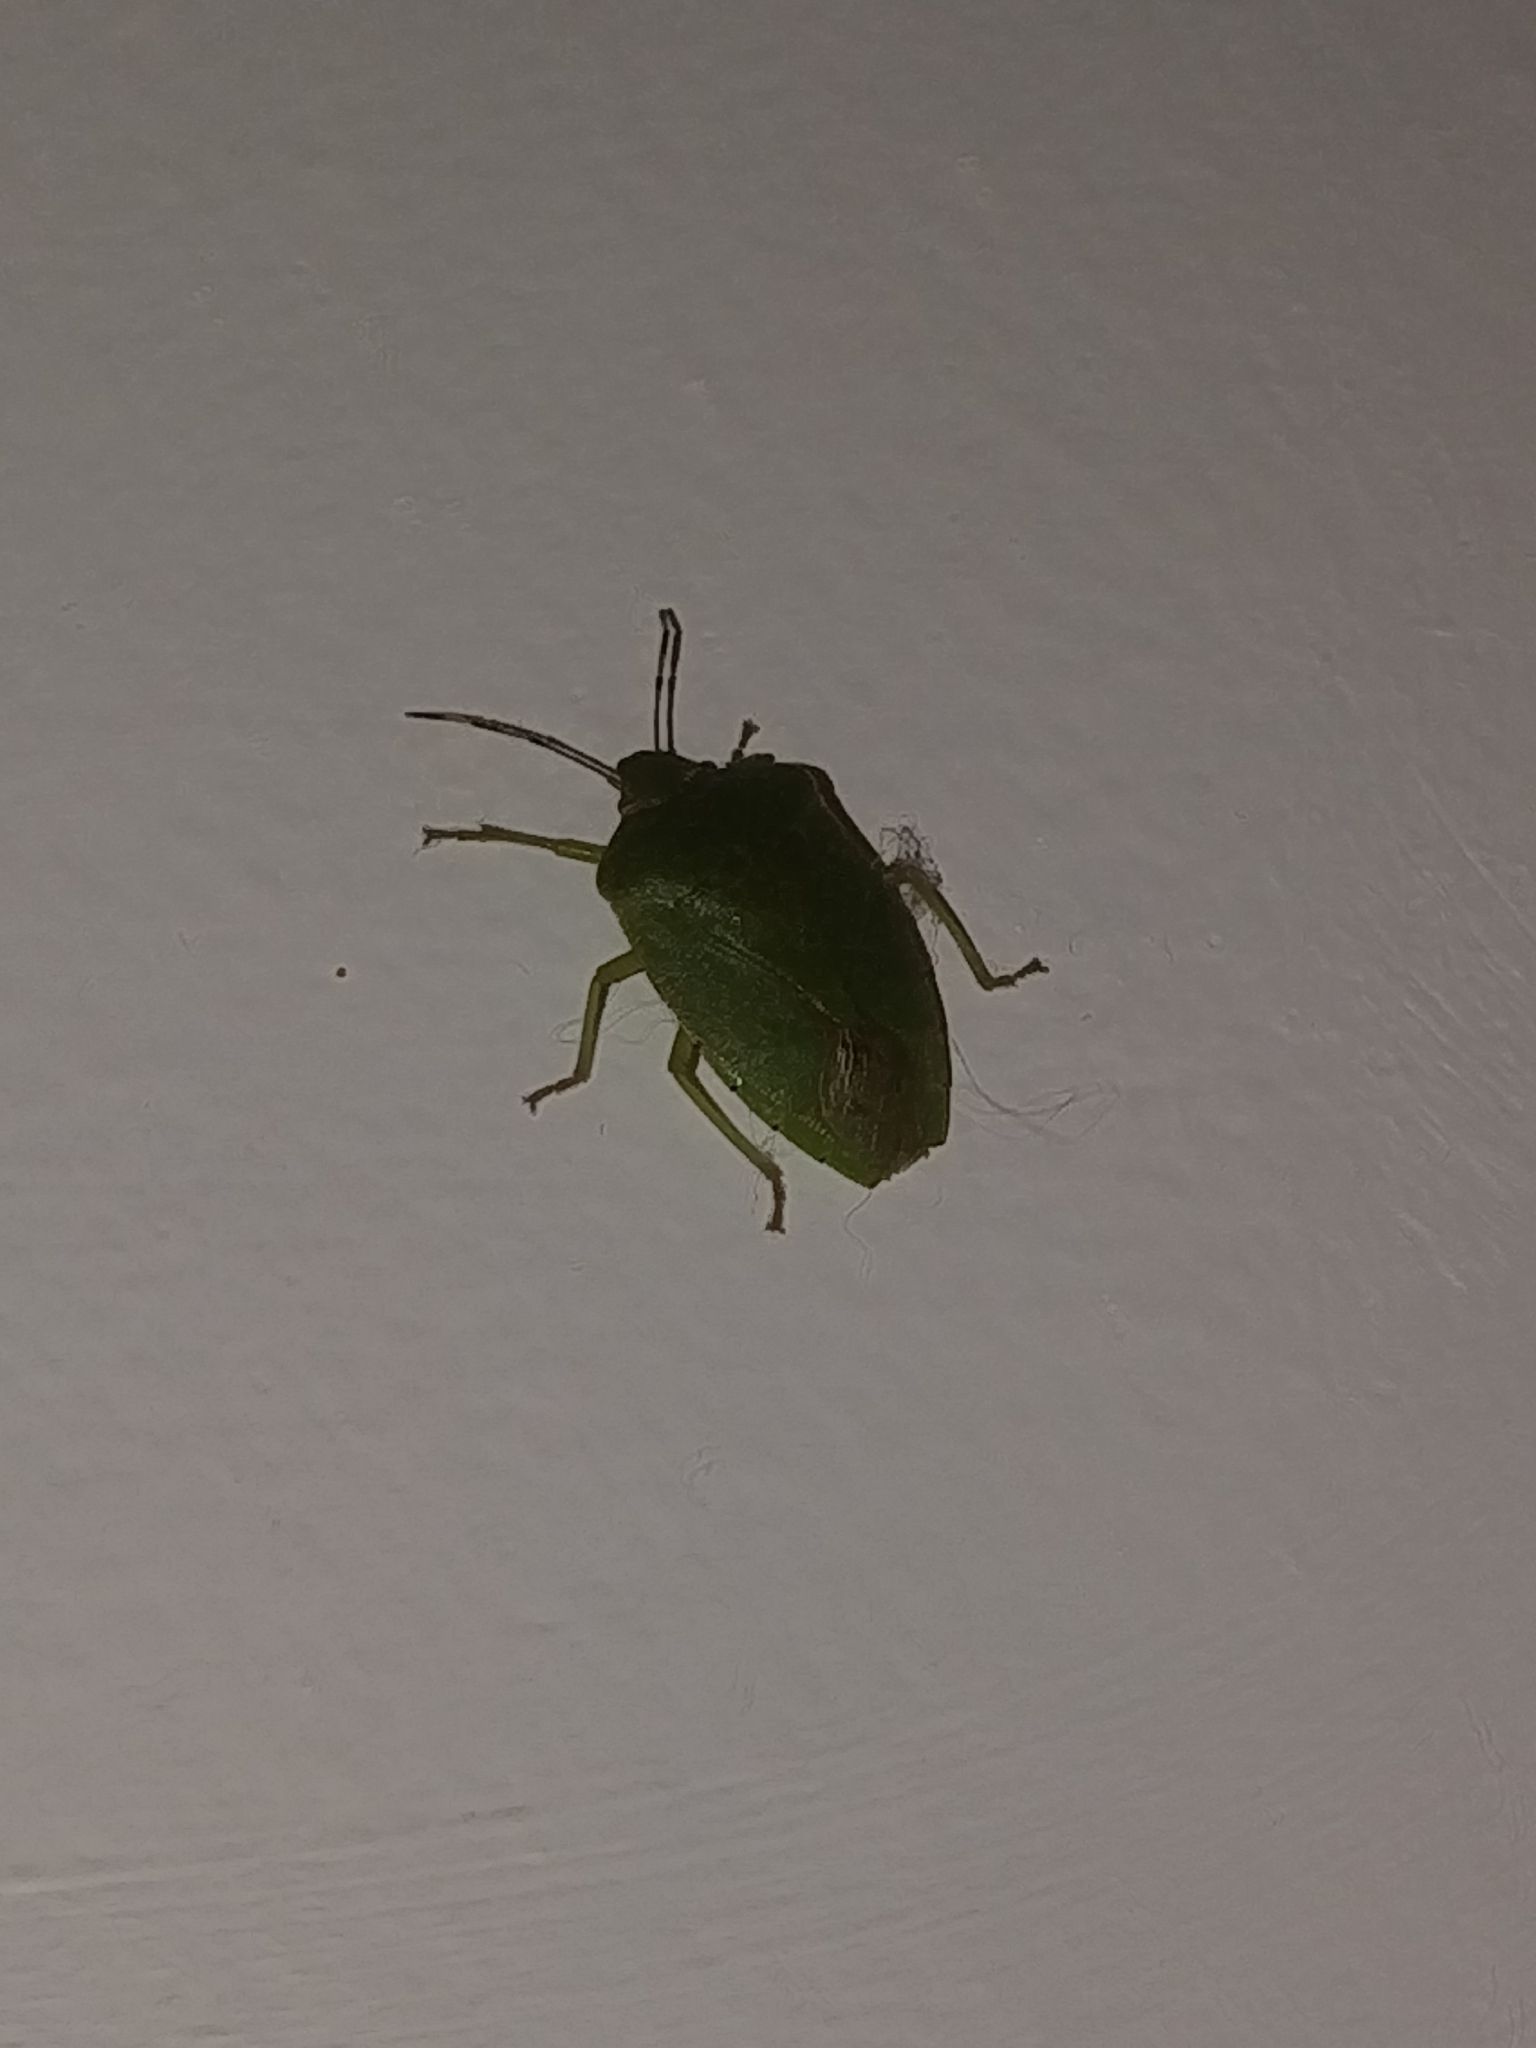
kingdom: Animalia
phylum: Arthropoda
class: Insecta
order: Hemiptera
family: Pentatomidae
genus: Chinavia
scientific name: Chinavia hilaris
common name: Green stink bug
